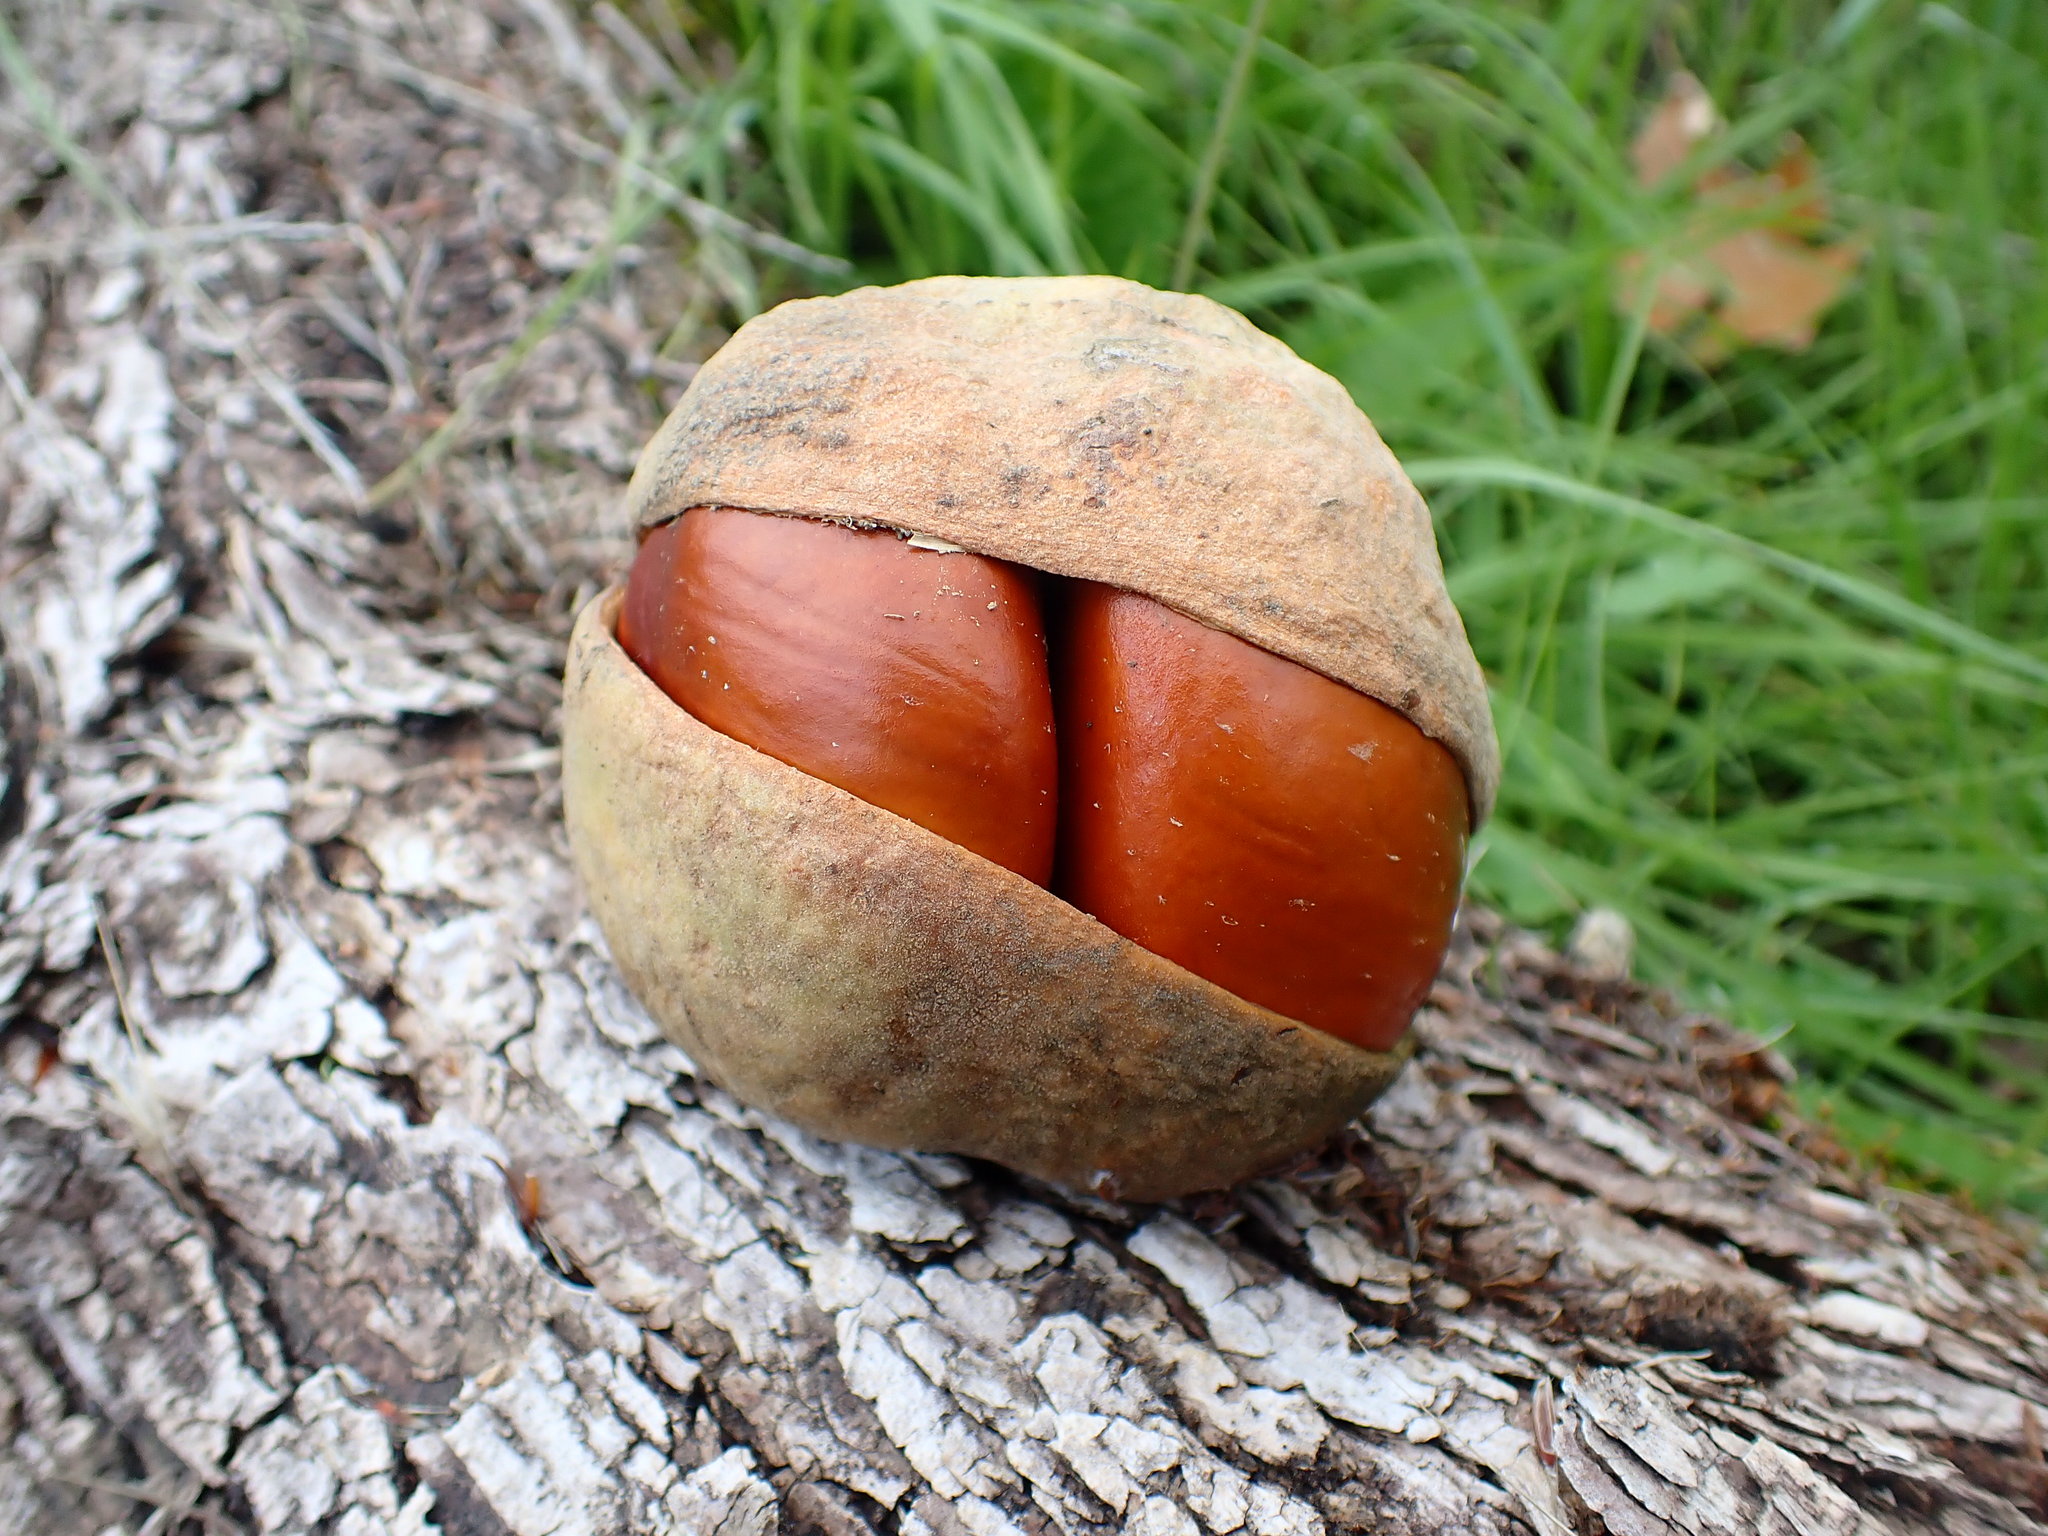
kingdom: Plantae
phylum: Tracheophyta
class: Magnoliopsida
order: Sapindales
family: Sapindaceae
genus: Aesculus
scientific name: Aesculus californica
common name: California buckeye
